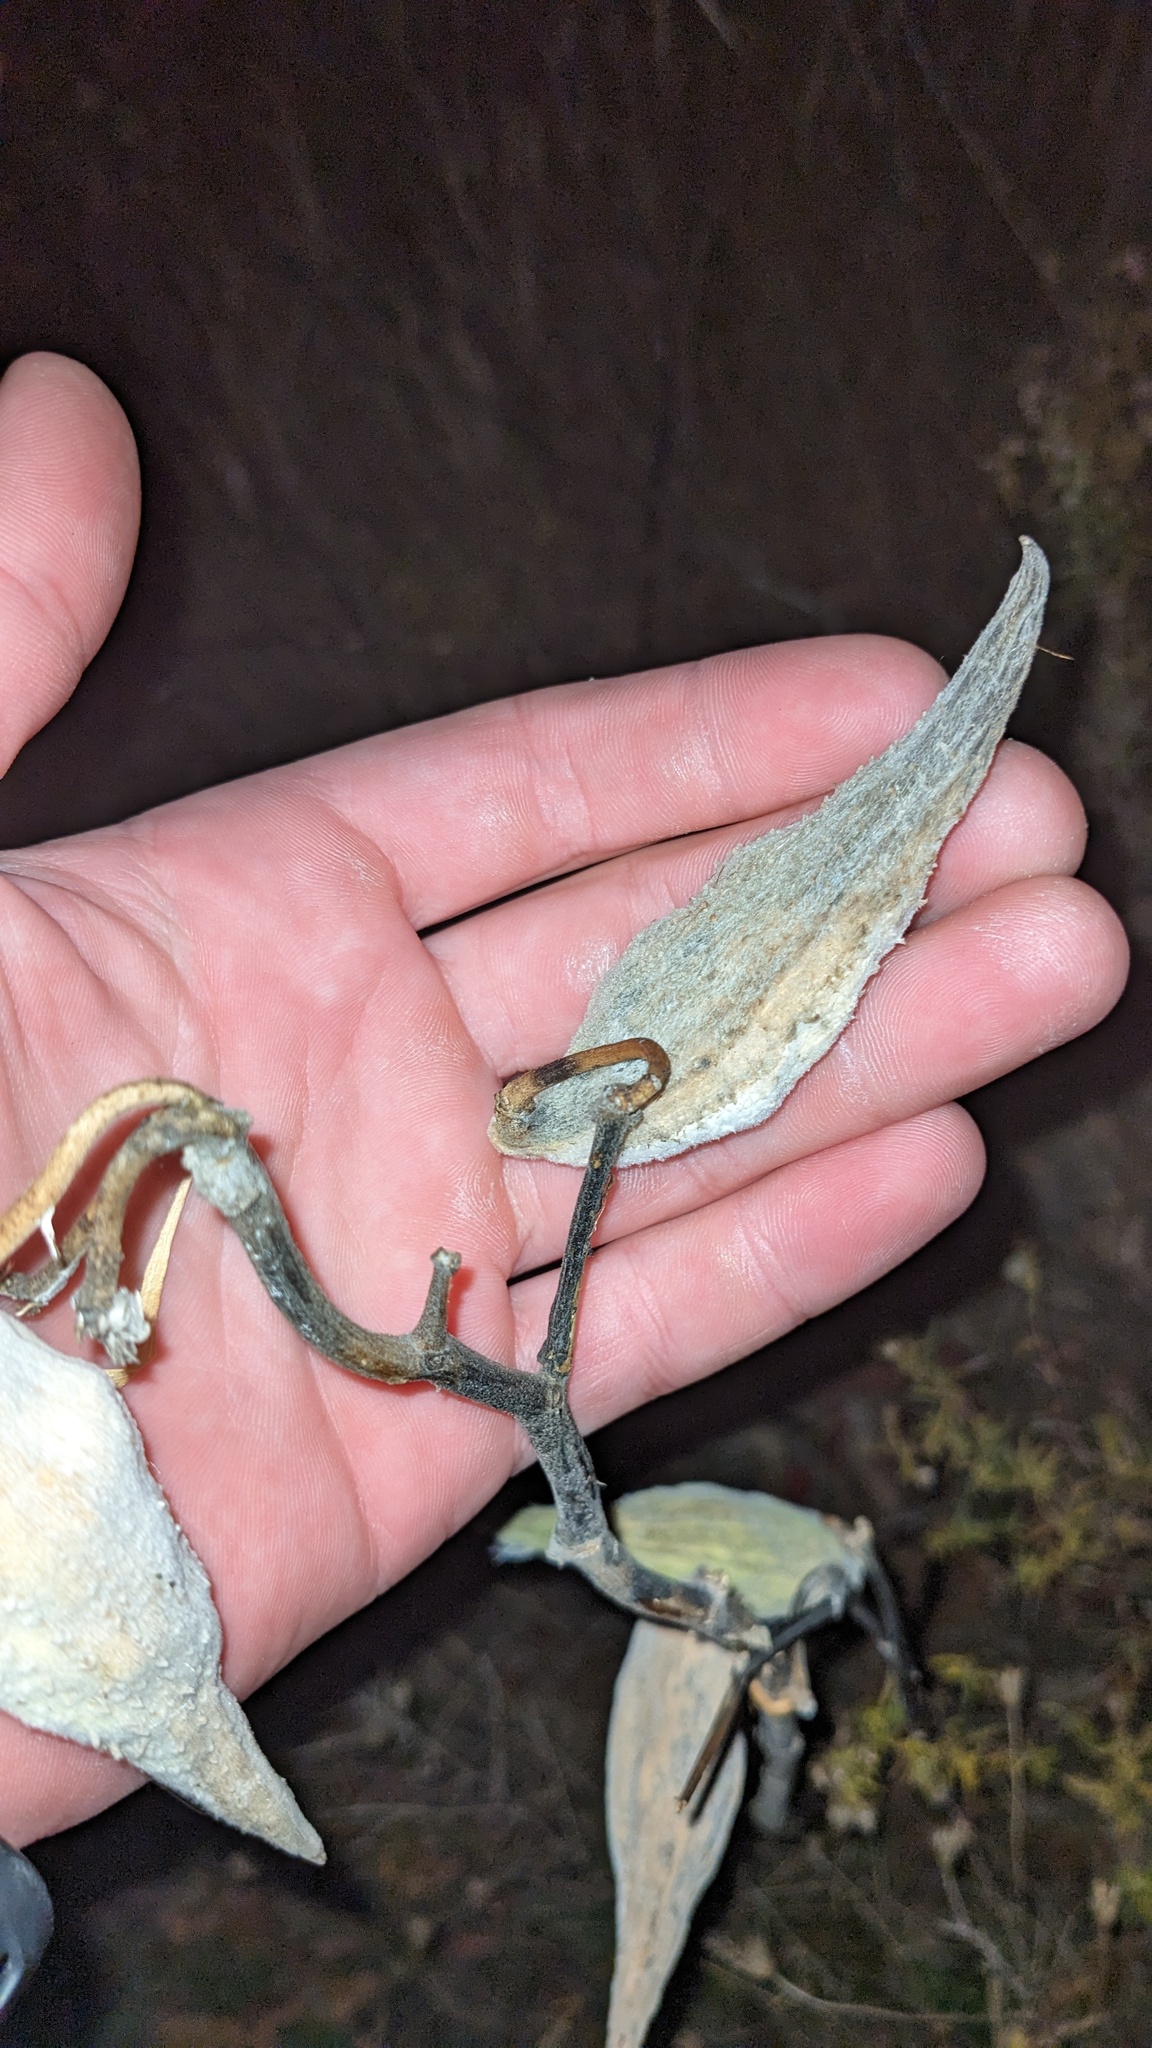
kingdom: Plantae
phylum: Tracheophyta
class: Magnoliopsida
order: Gentianales
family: Apocynaceae
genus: Asclepias
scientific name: Asclepias syriaca
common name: Common milkweed
